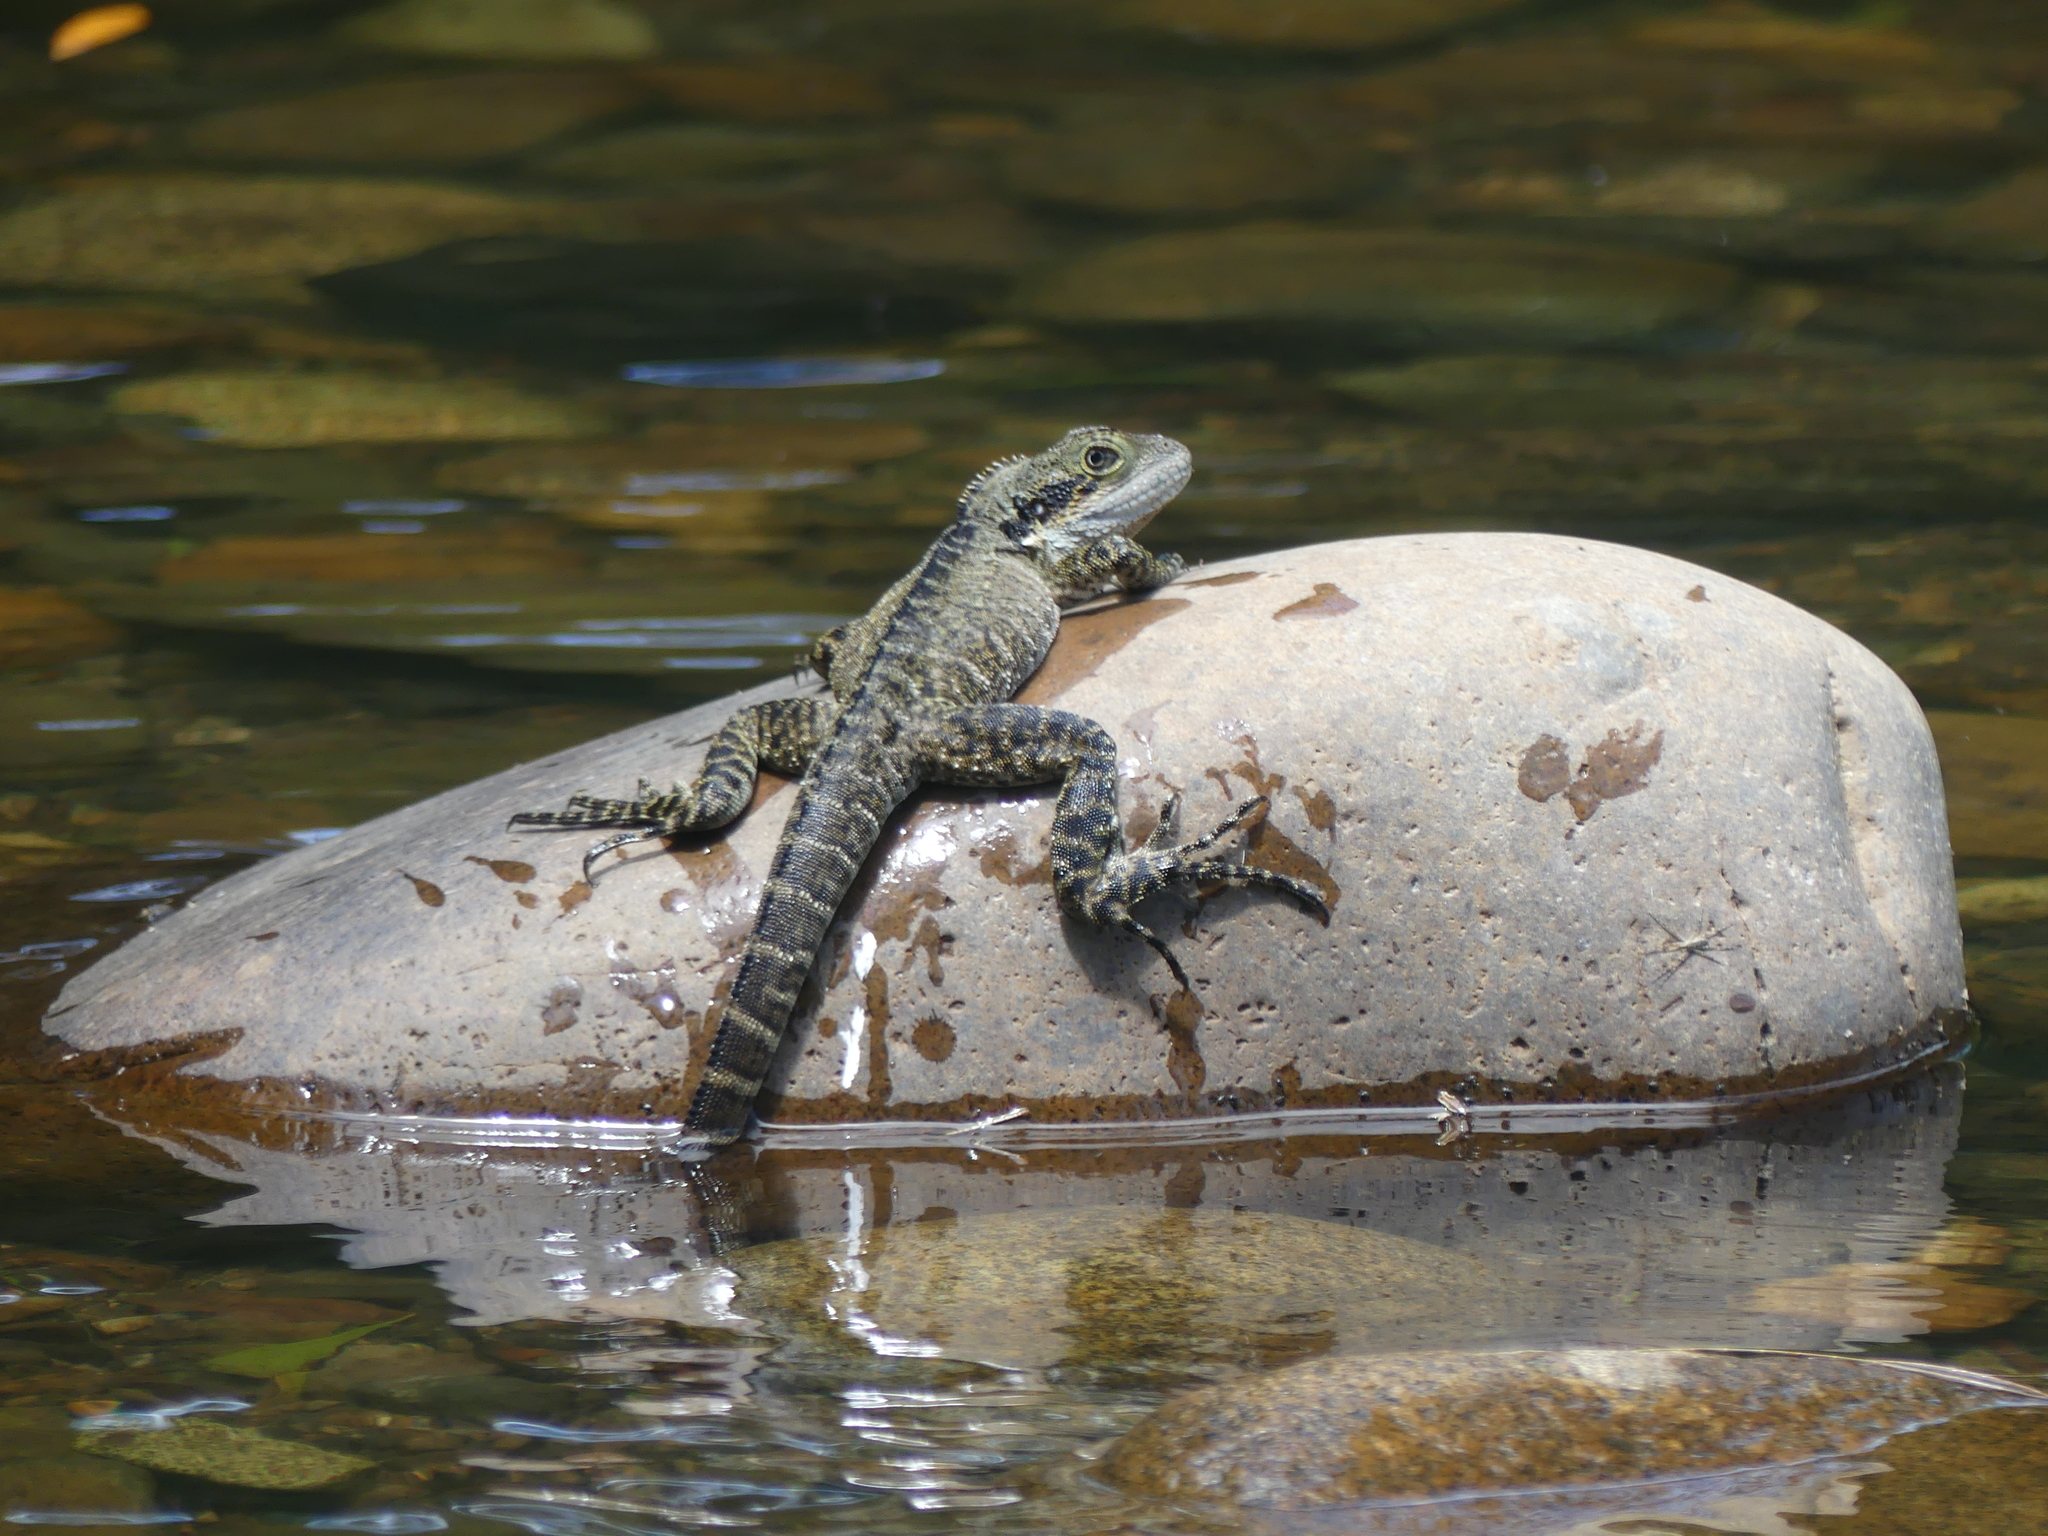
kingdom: Animalia
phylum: Chordata
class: Squamata
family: Agamidae
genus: Intellagama
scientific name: Intellagama lesueurii
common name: Eastern water dragon
